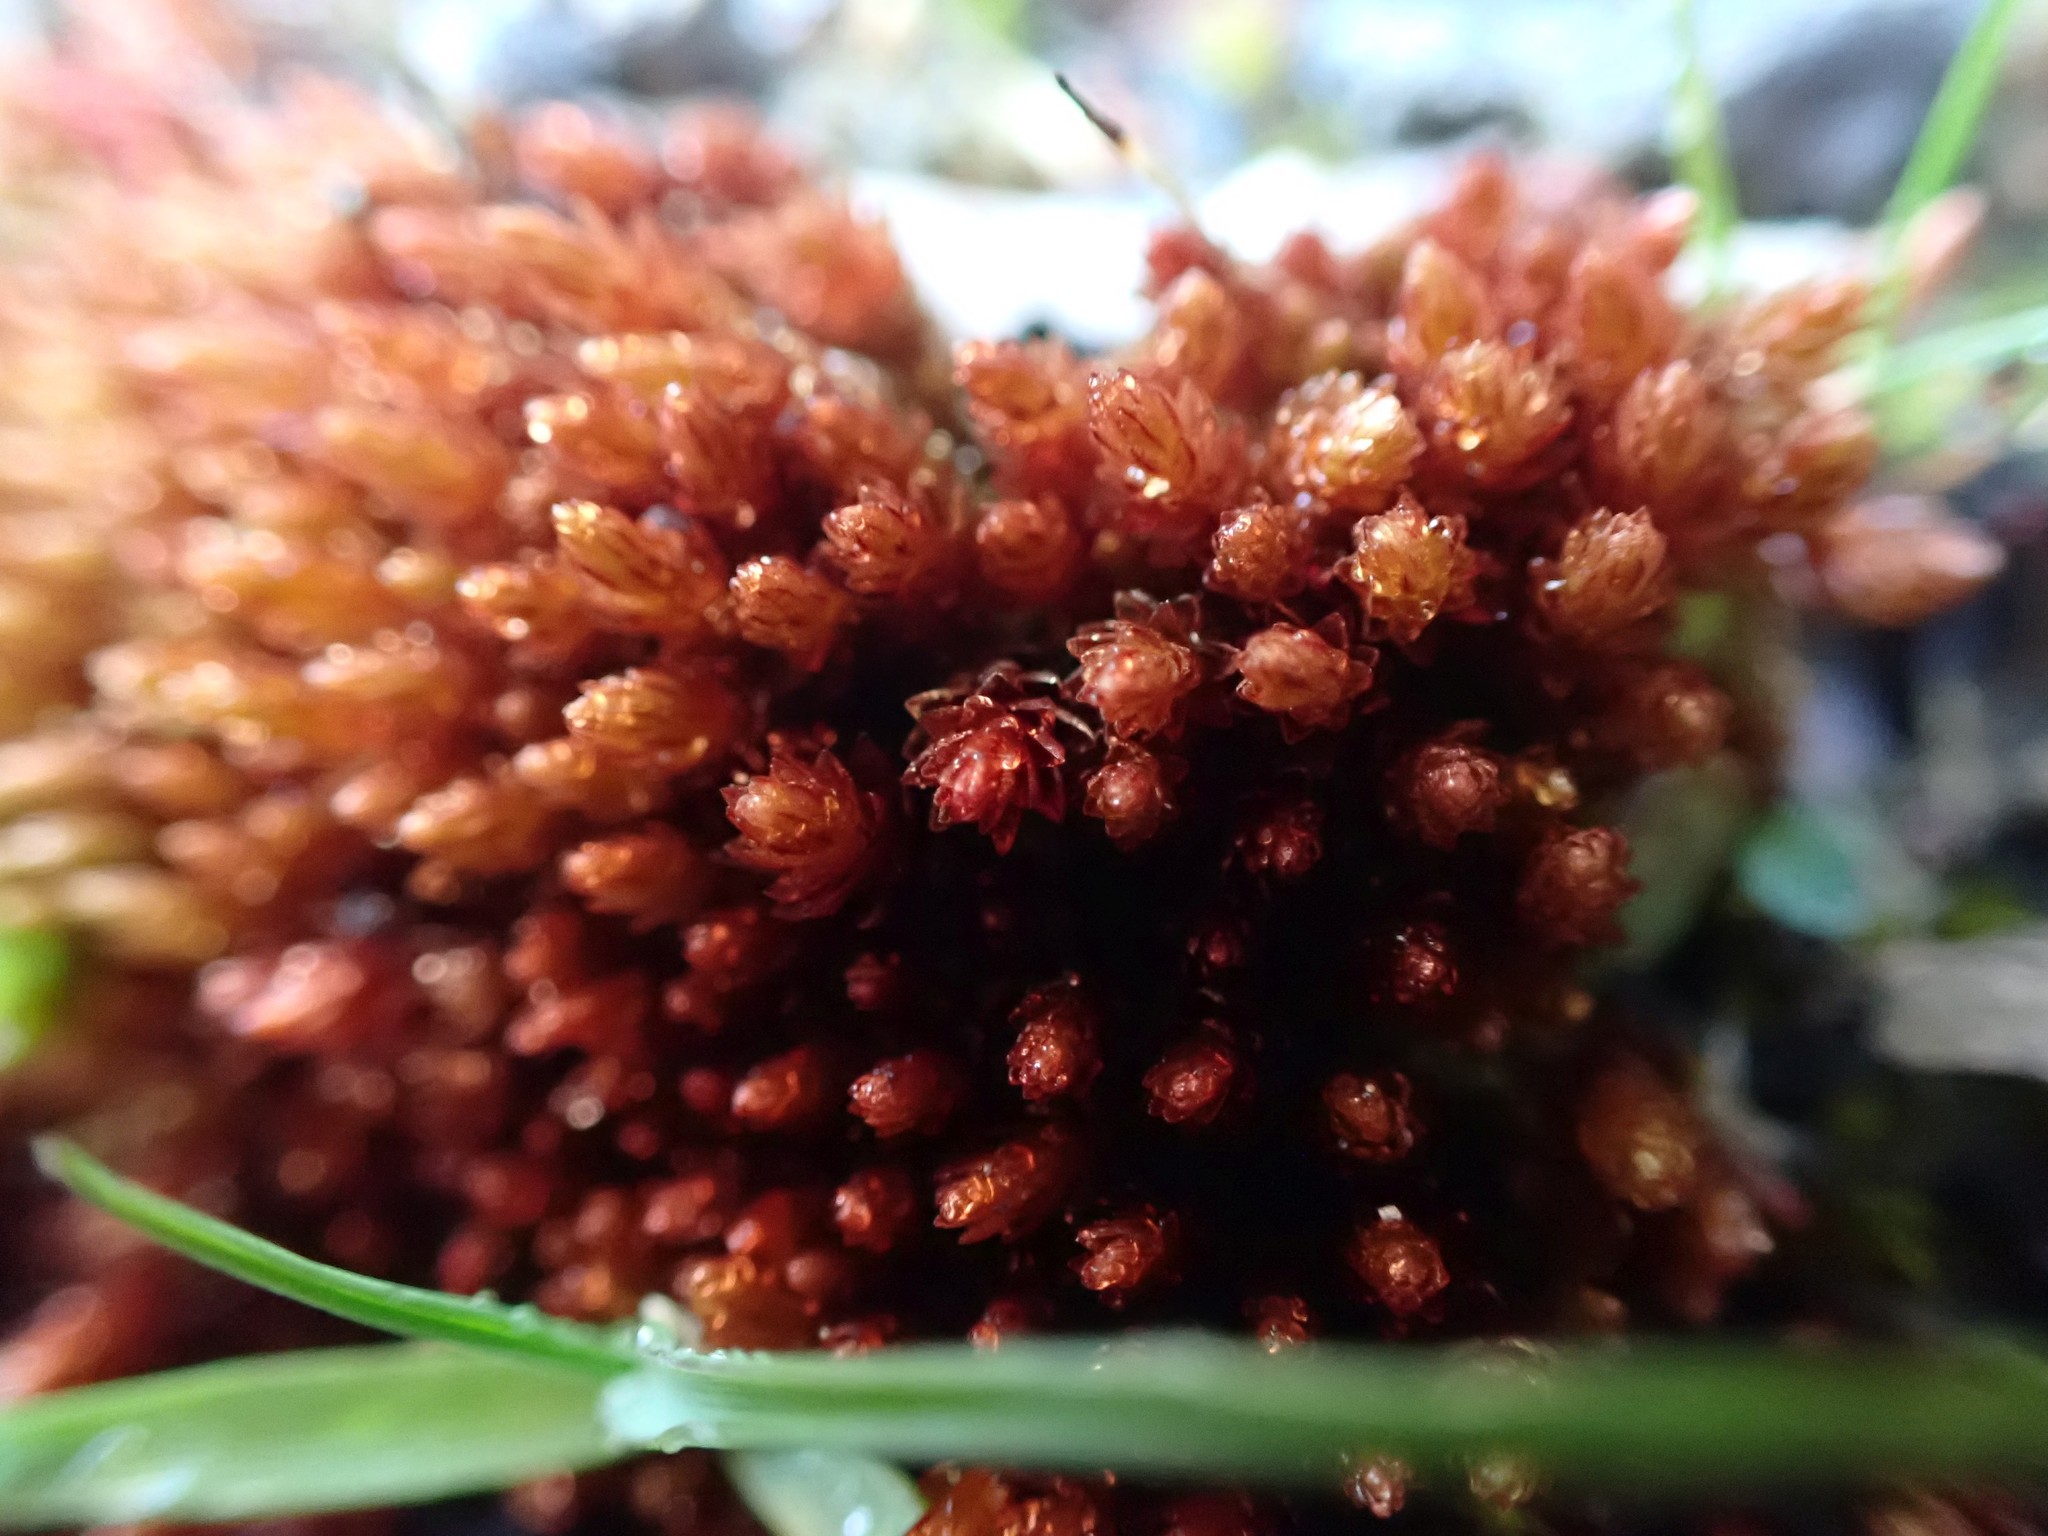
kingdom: Plantae
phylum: Bryophyta
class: Bryopsida
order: Bryales
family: Bryaceae
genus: Imbribryum
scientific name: Imbribryum miniatum
